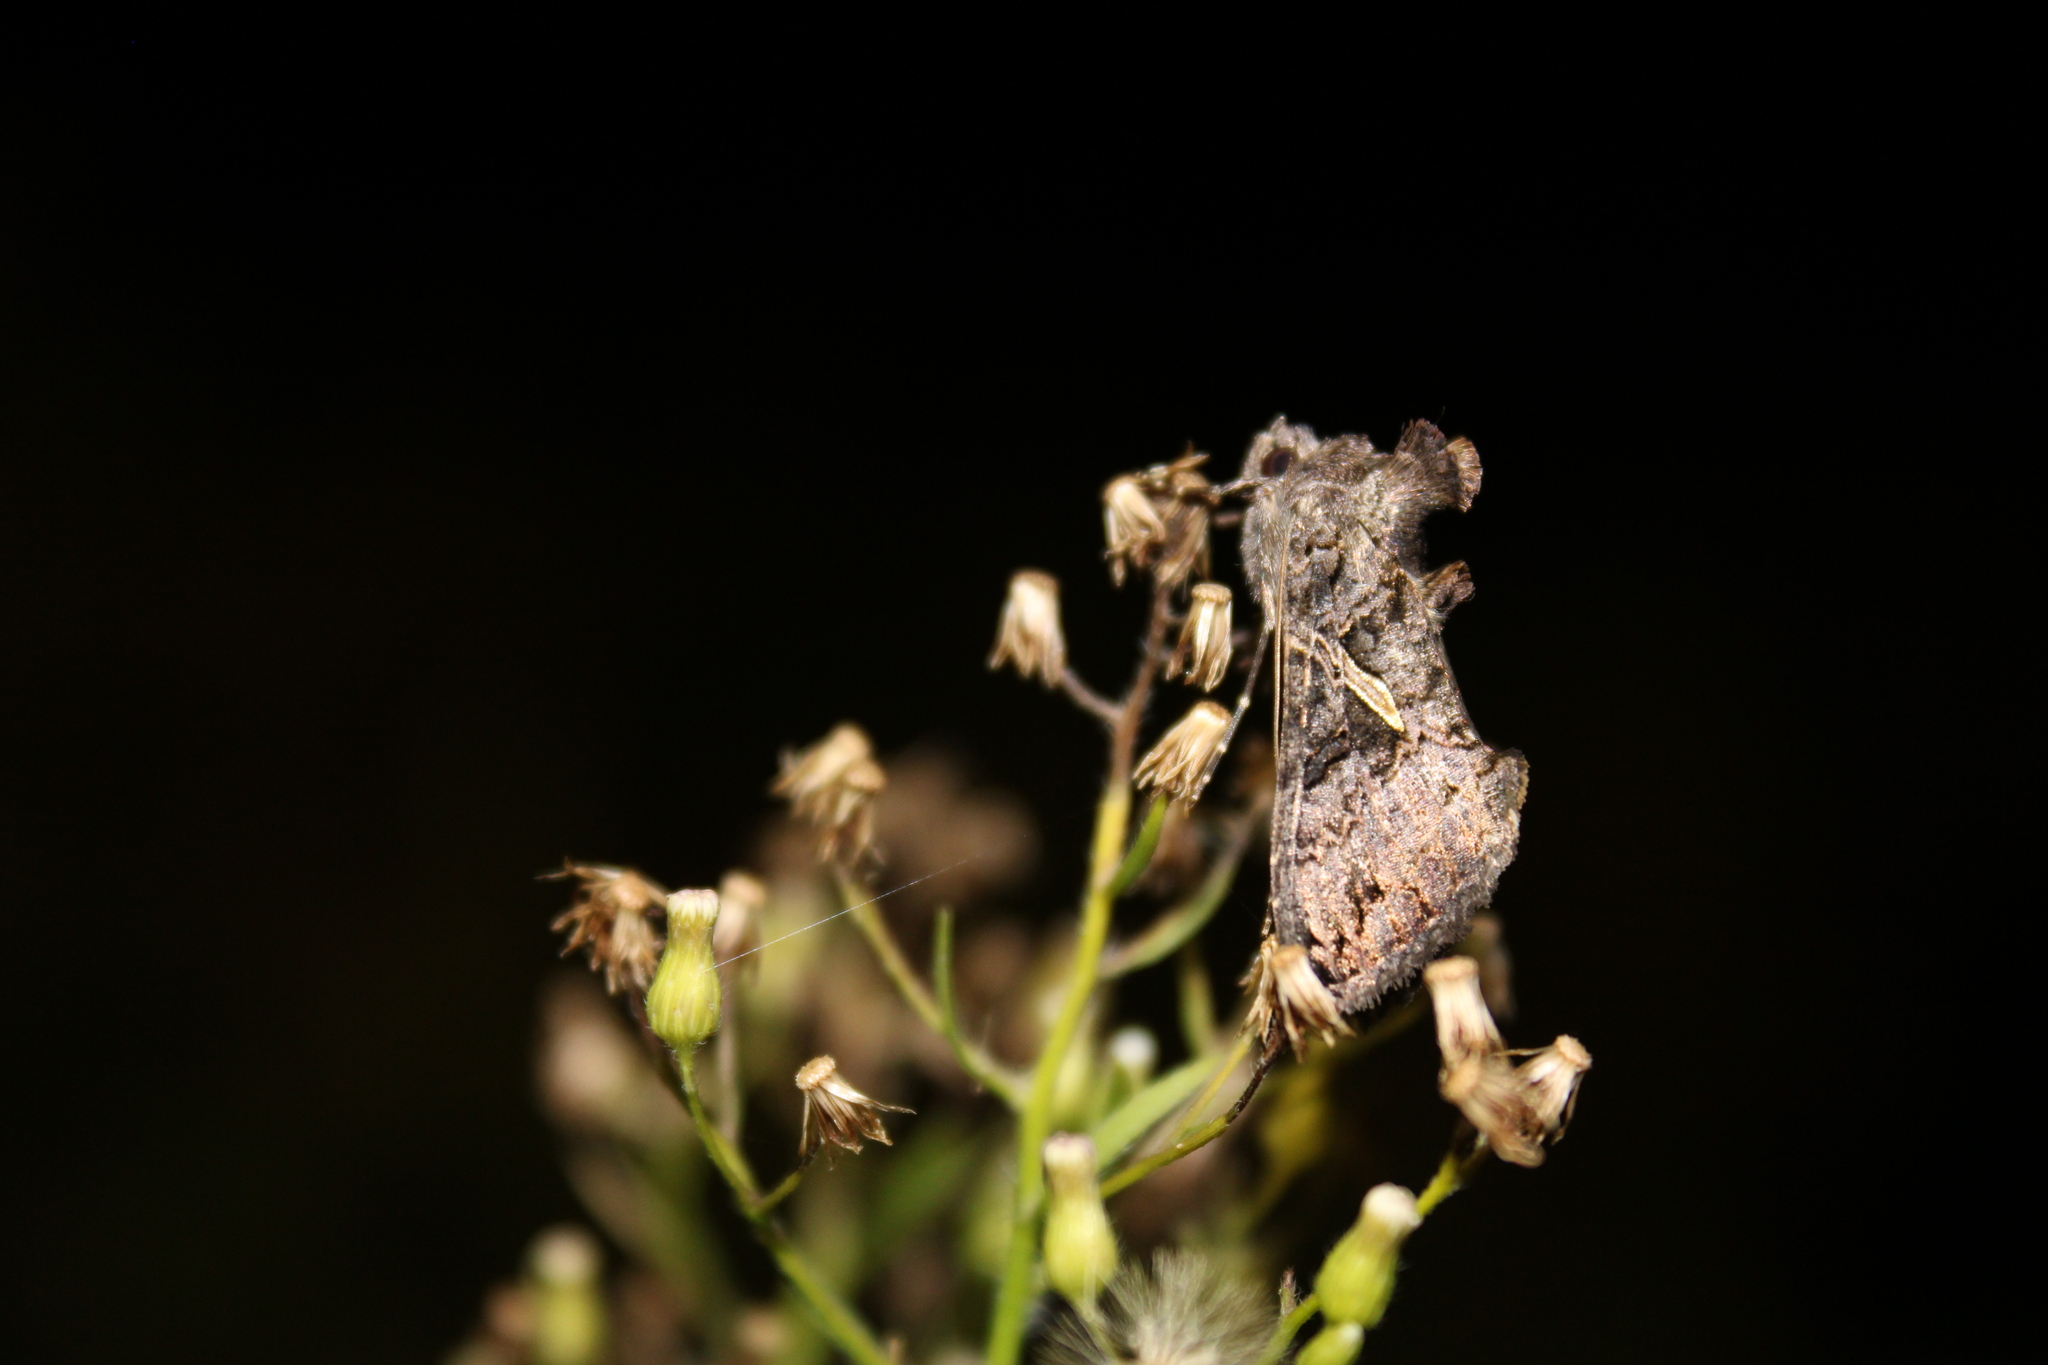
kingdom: Animalia
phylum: Arthropoda
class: Insecta
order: Lepidoptera
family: Noctuidae
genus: Ctenoplusia
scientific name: Ctenoplusia oxygramma
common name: Sharp-stigma looper moth
